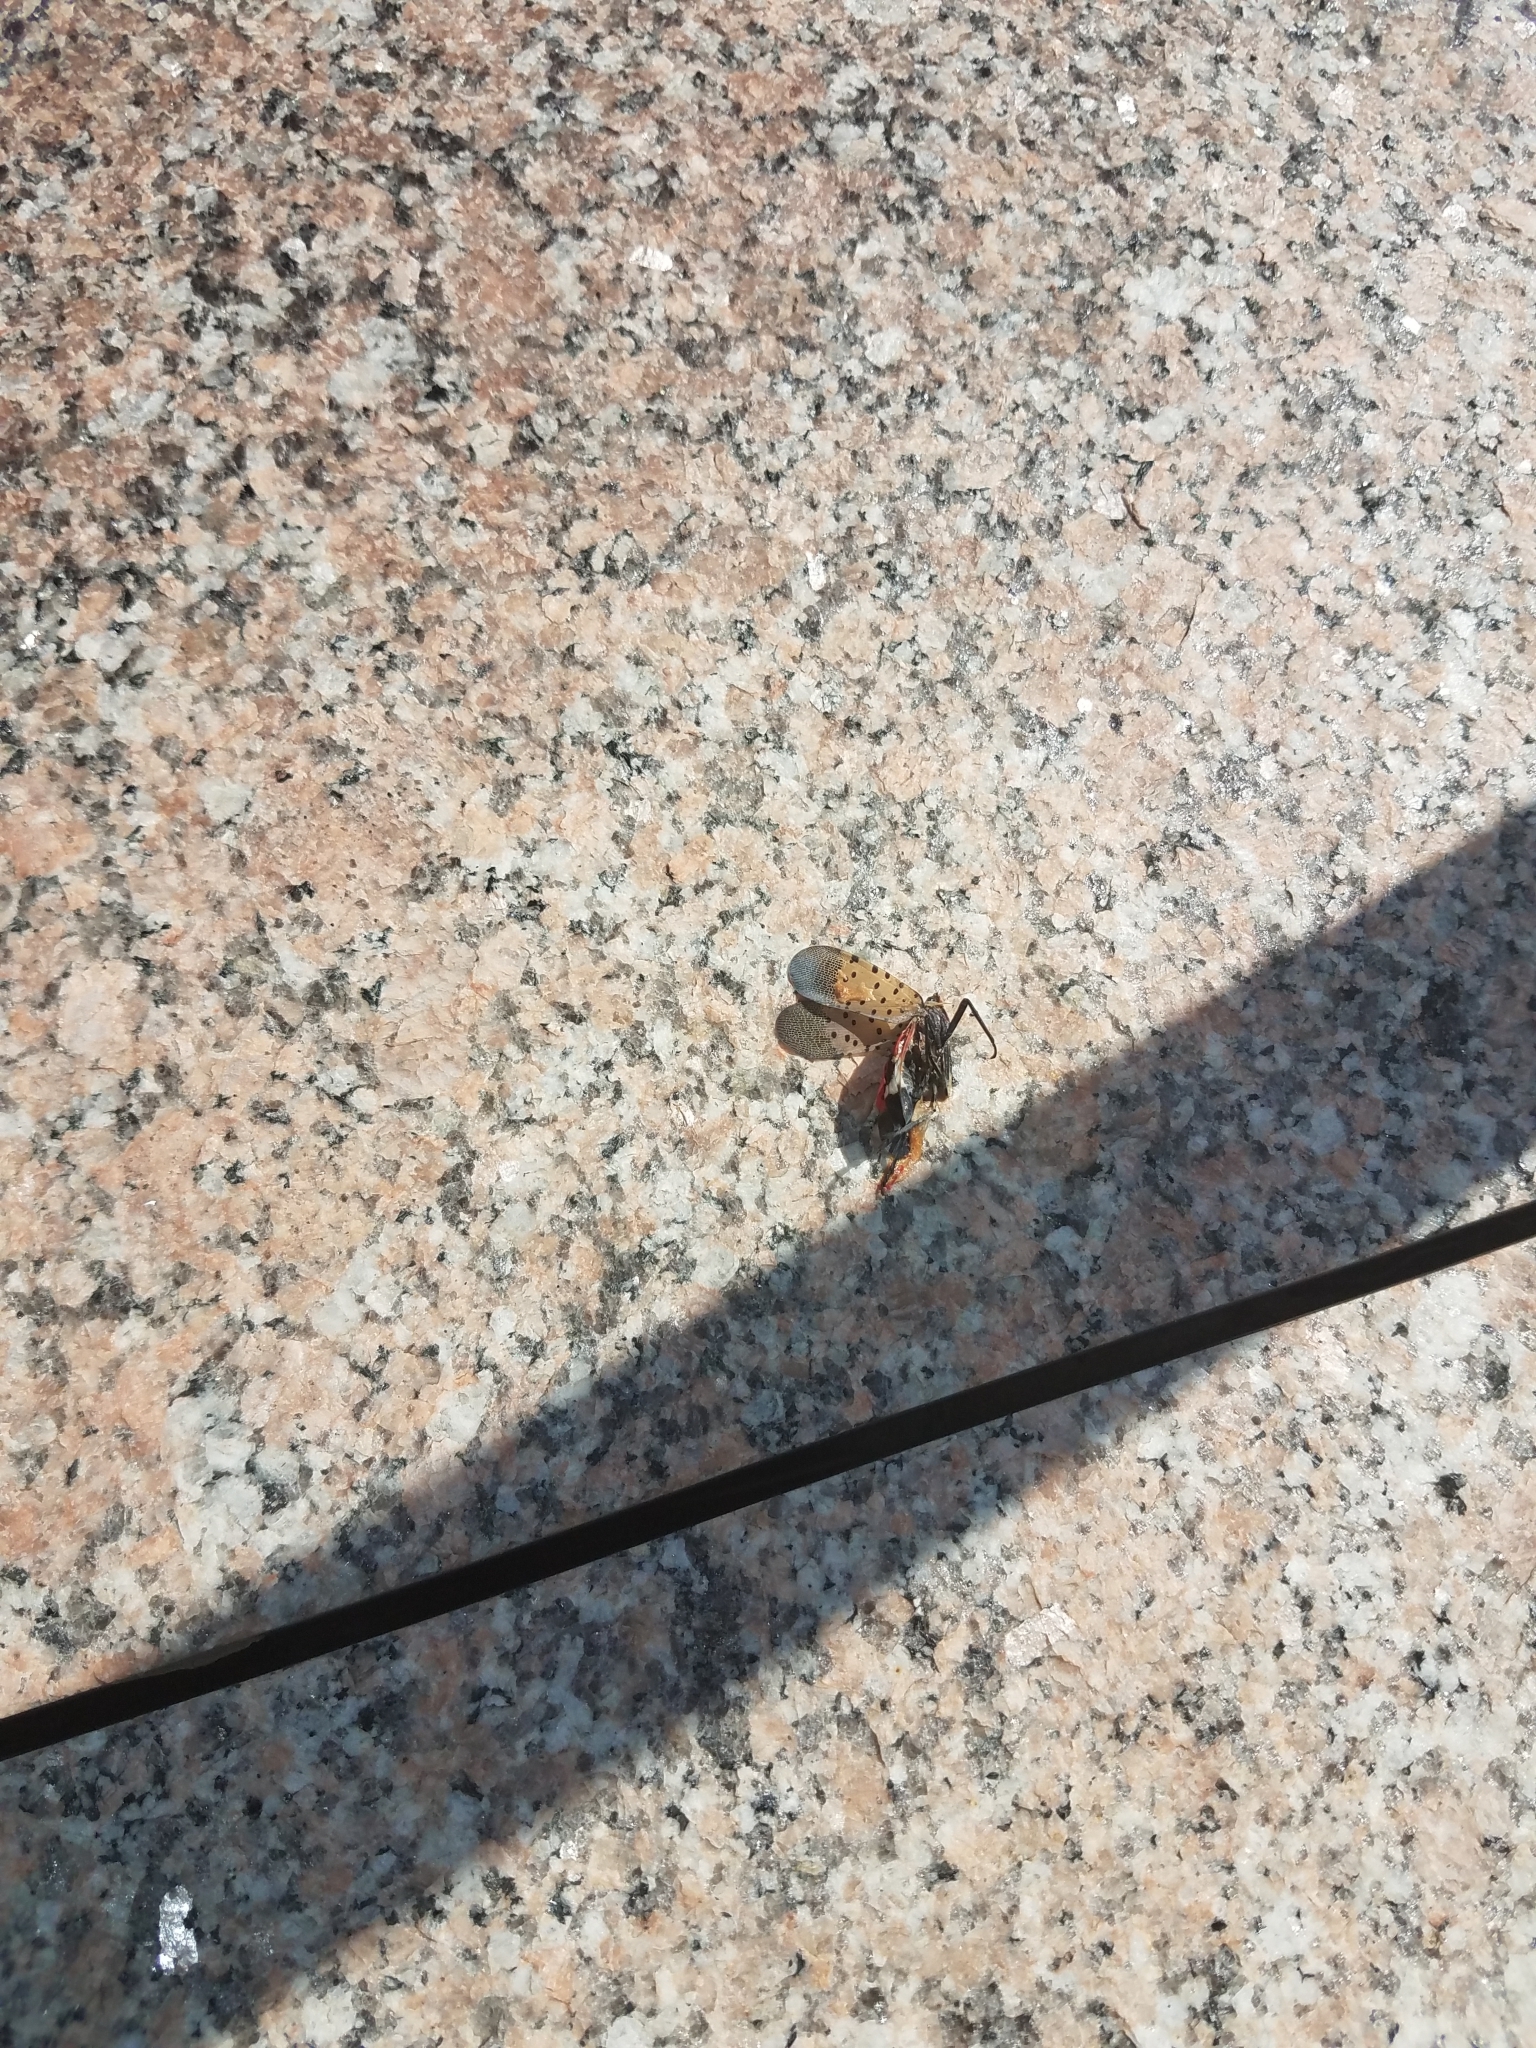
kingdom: Animalia
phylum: Arthropoda
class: Insecta
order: Hemiptera
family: Fulgoridae
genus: Lycorma
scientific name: Lycorma delicatula
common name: Spotted lanternfly
